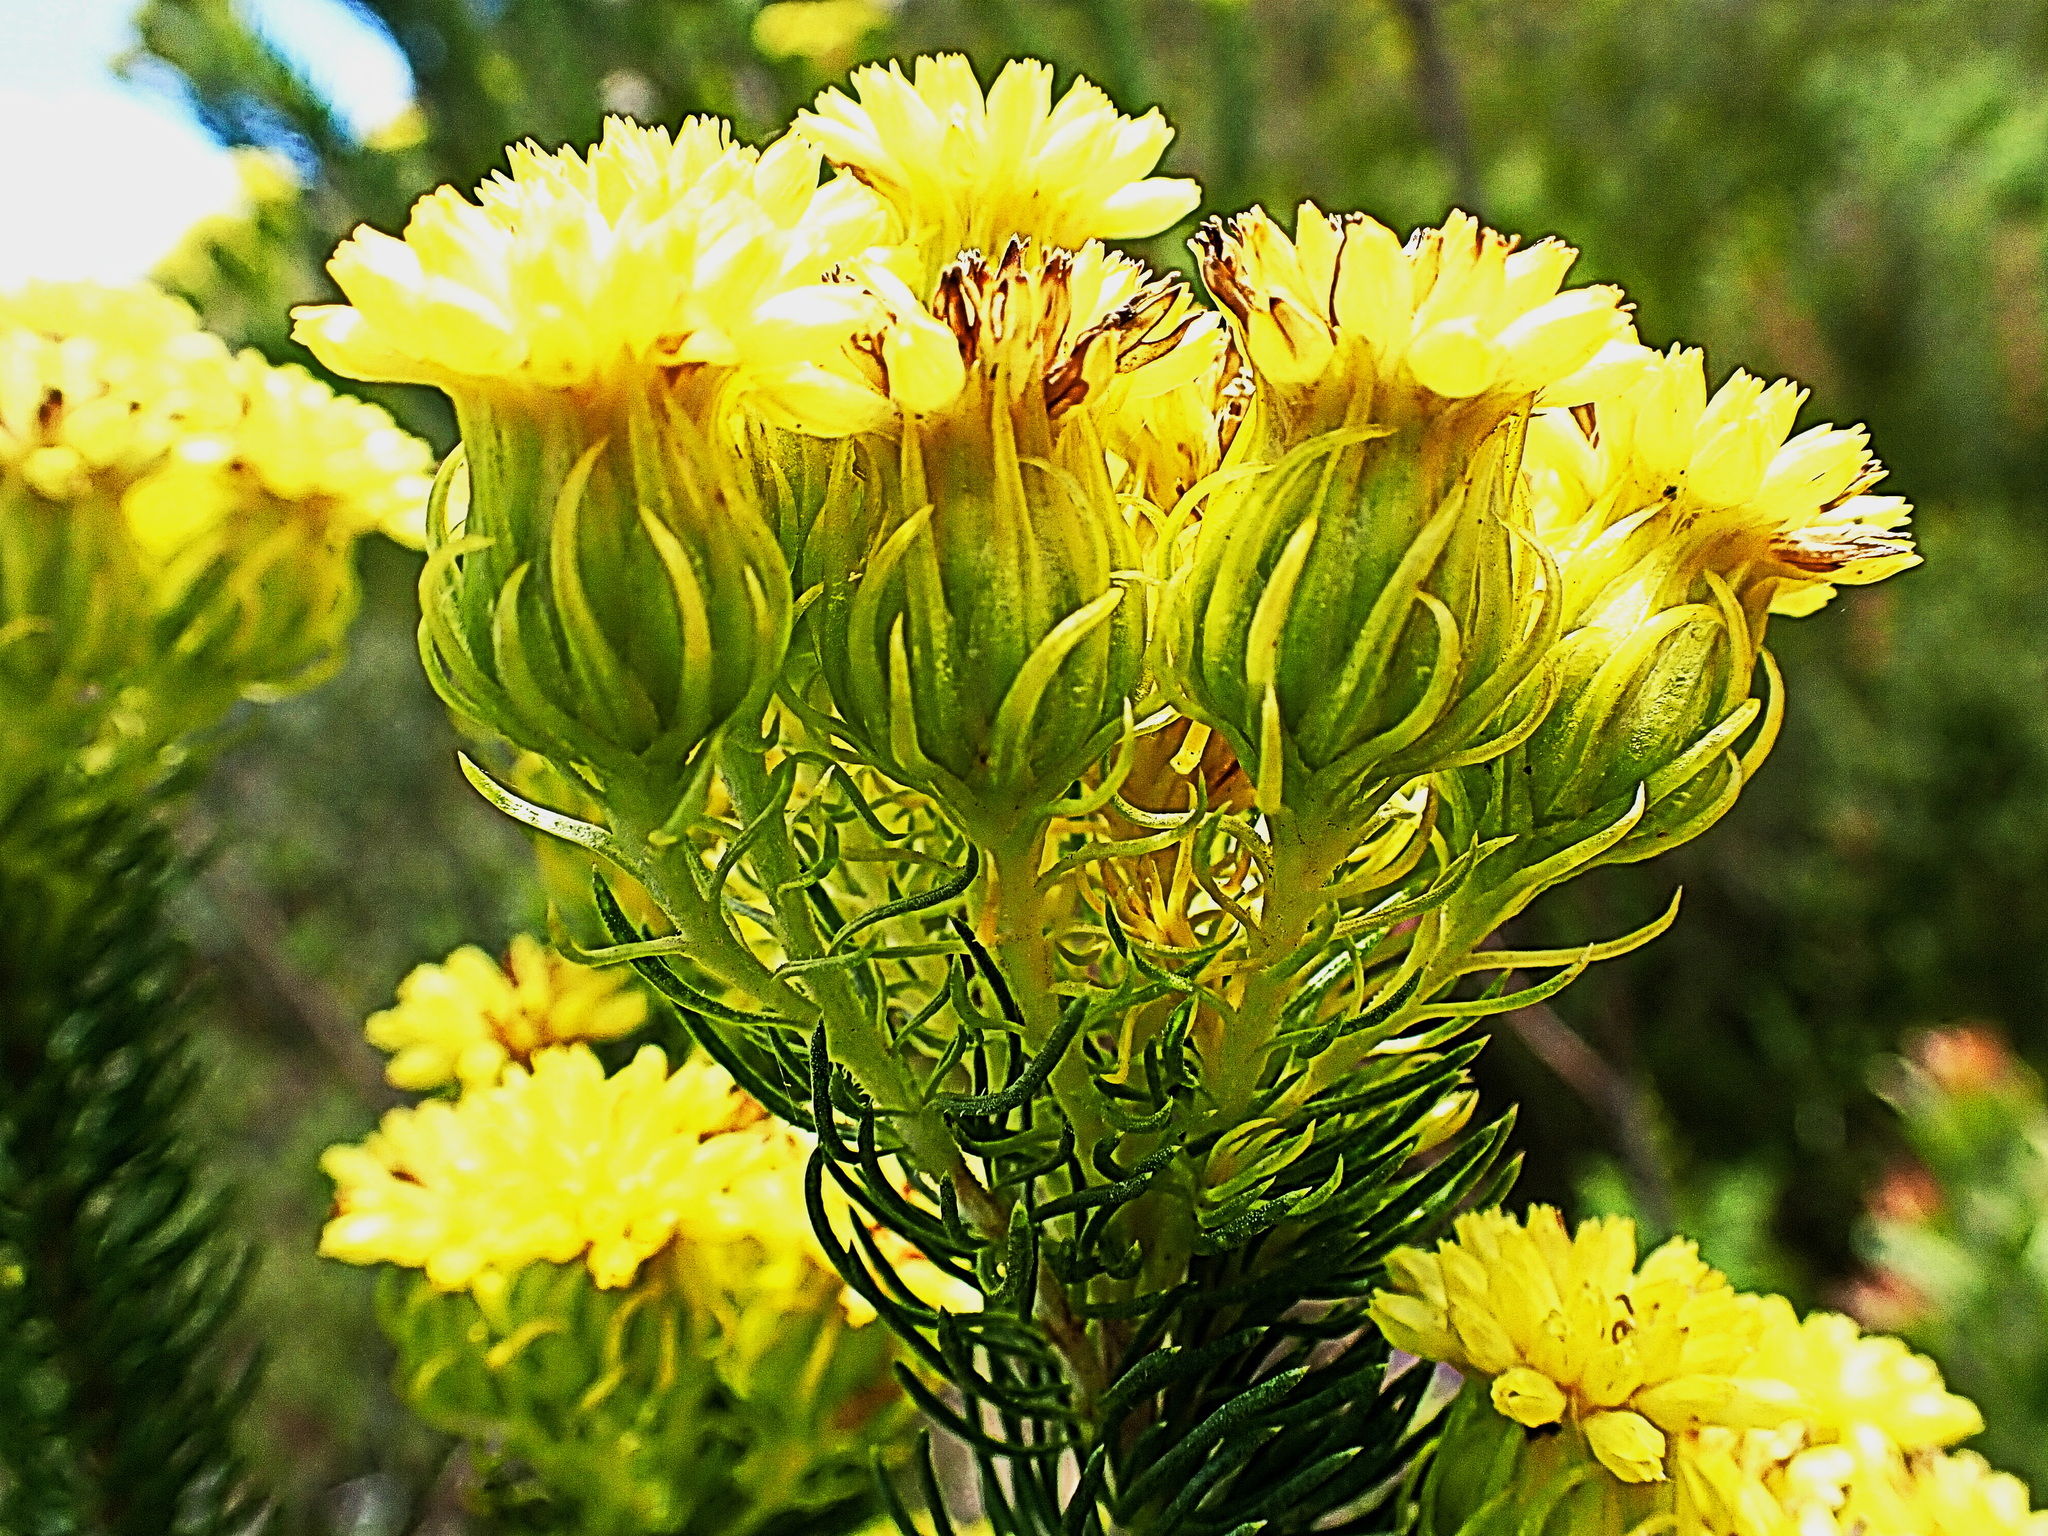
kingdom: Plantae
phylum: Tracheophyta
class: Magnoliopsida
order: Asterales
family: Asteraceae
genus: Pteronia
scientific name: Pteronia camphorata
